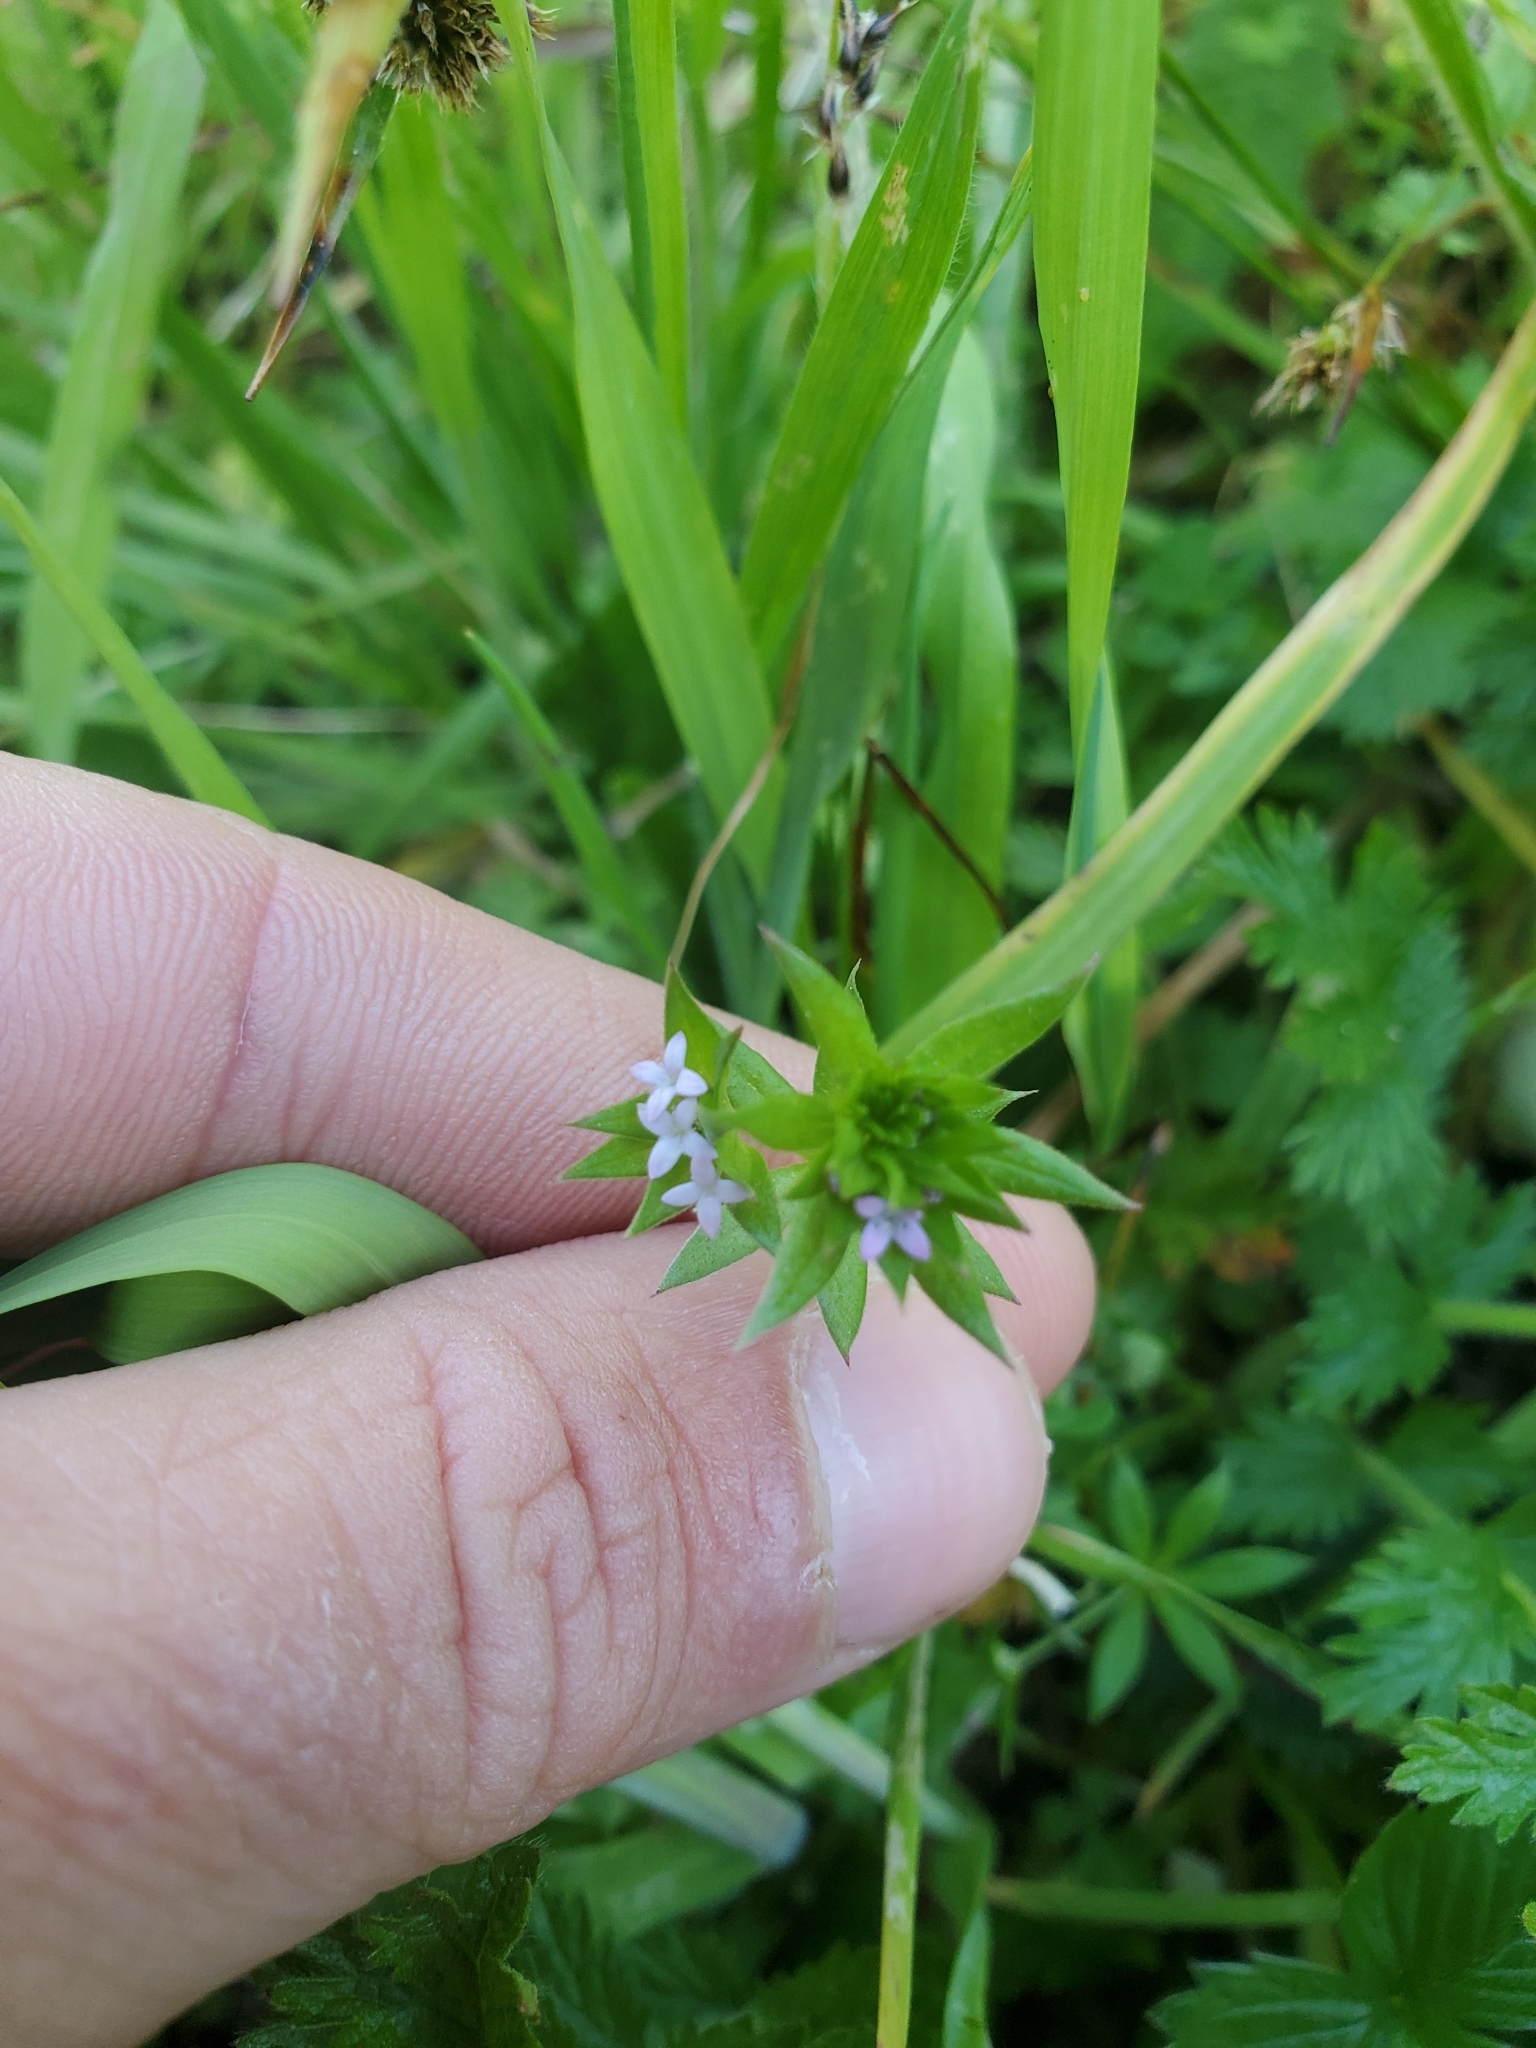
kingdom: Plantae
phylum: Tracheophyta
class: Magnoliopsida
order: Gentianales
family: Rubiaceae
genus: Sherardia
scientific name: Sherardia arvensis
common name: Field madder
